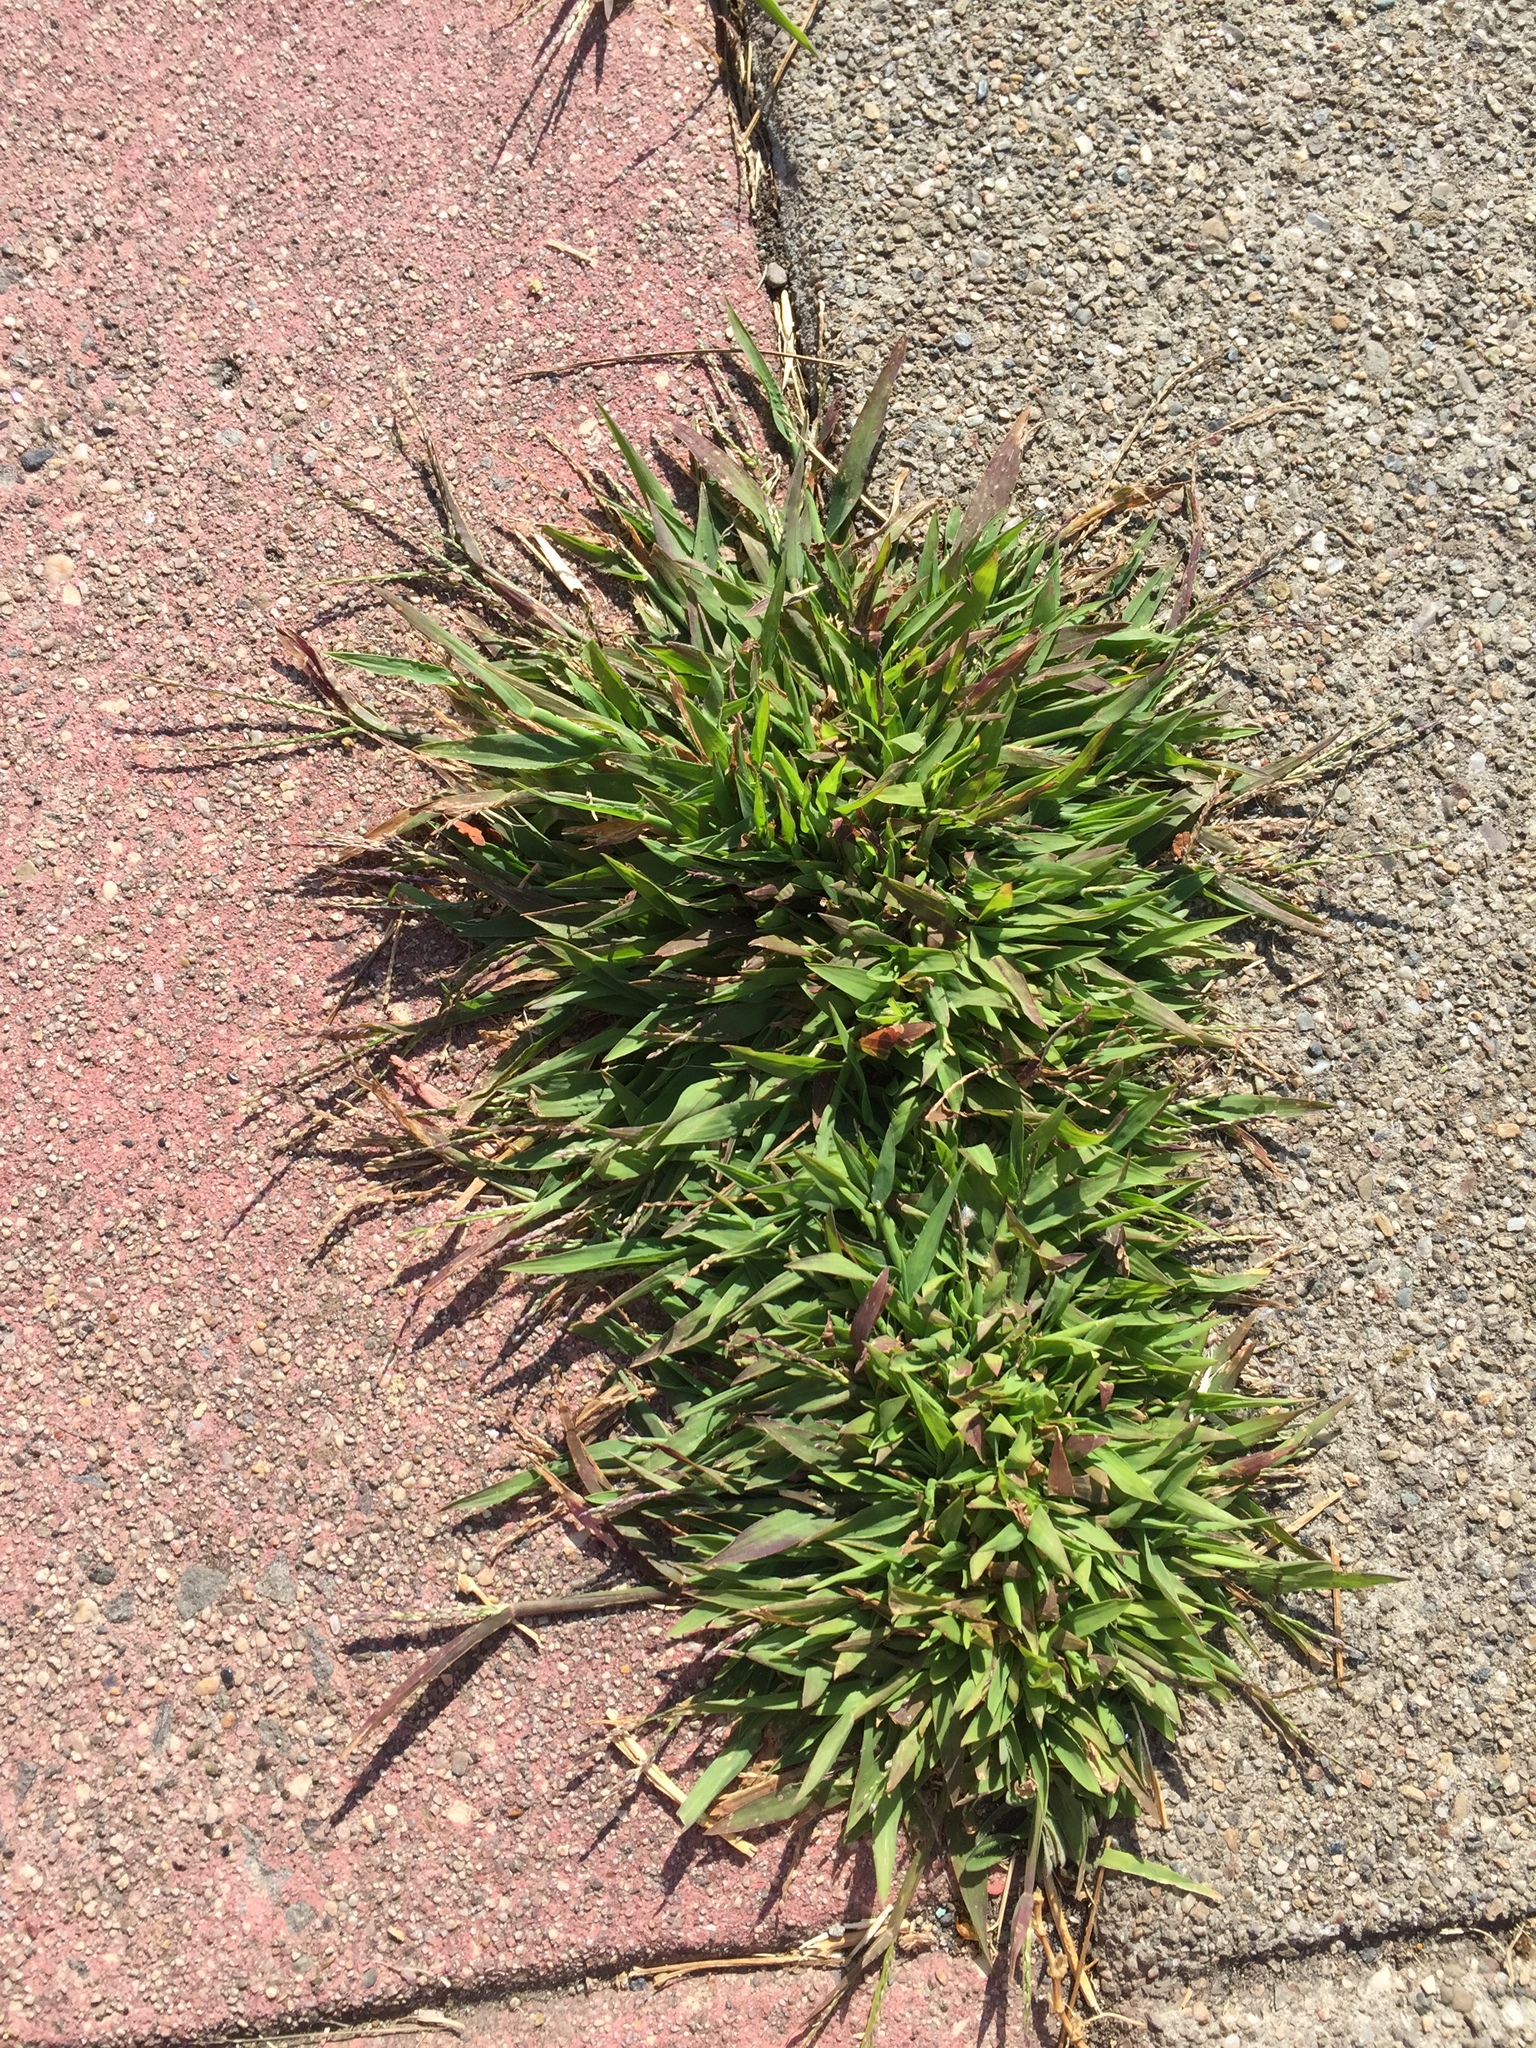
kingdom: Plantae
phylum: Tracheophyta
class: Liliopsida
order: Poales
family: Poaceae
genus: Digitaria
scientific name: Digitaria ischaemum
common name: Smooth crabgrass
